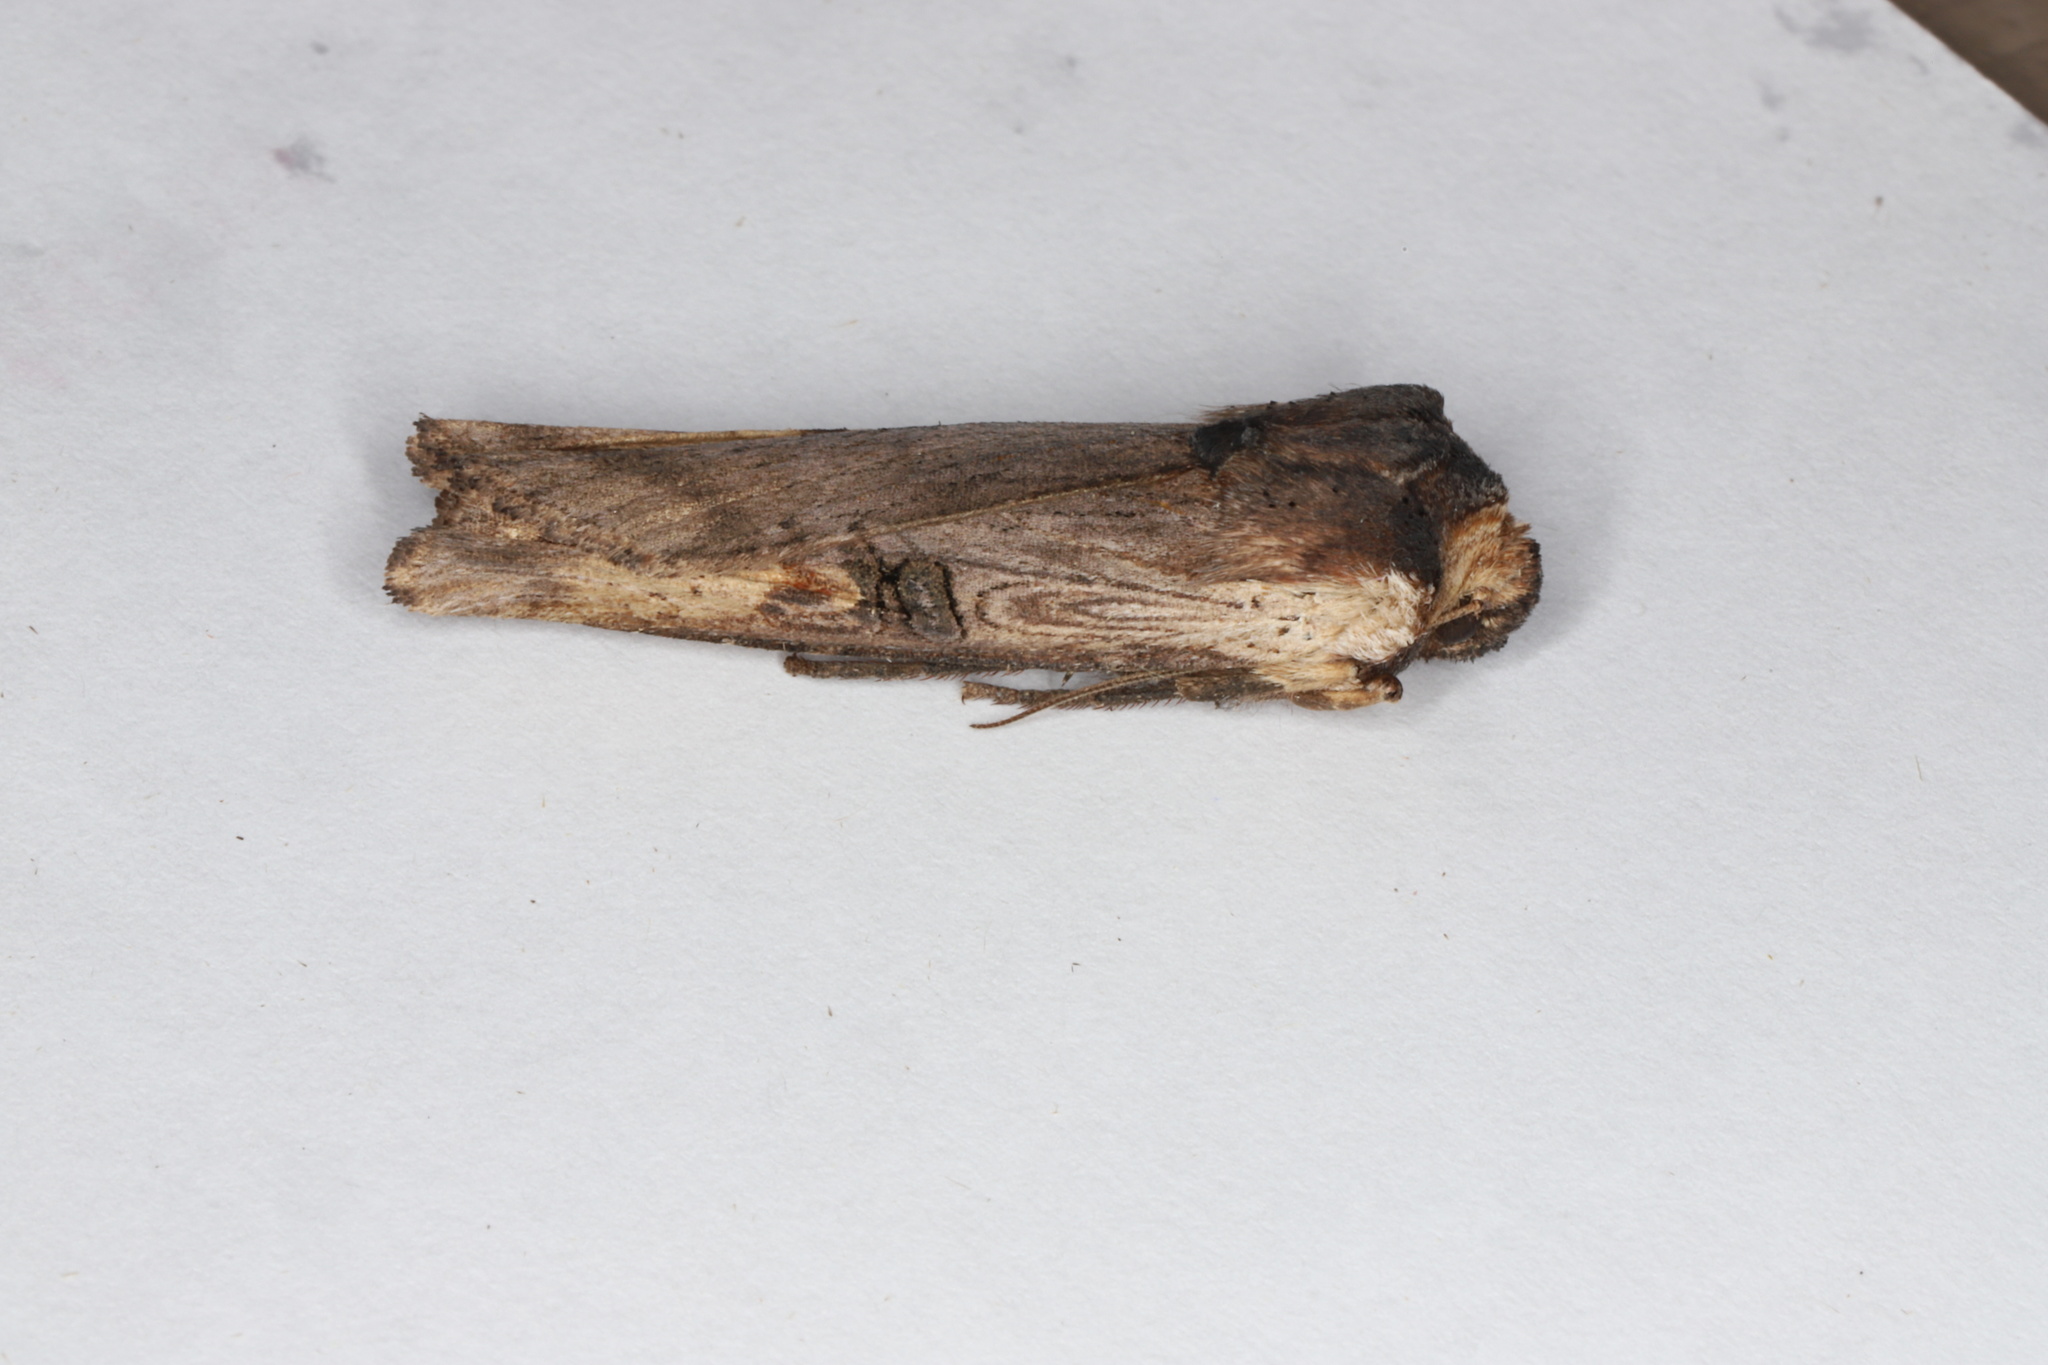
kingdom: Animalia
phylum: Arthropoda
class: Insecta
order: Lepidoptera
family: Noctuidae
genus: Xylena
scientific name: Xylena curvimacula
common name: Dot-and-dash swordgrass moth
